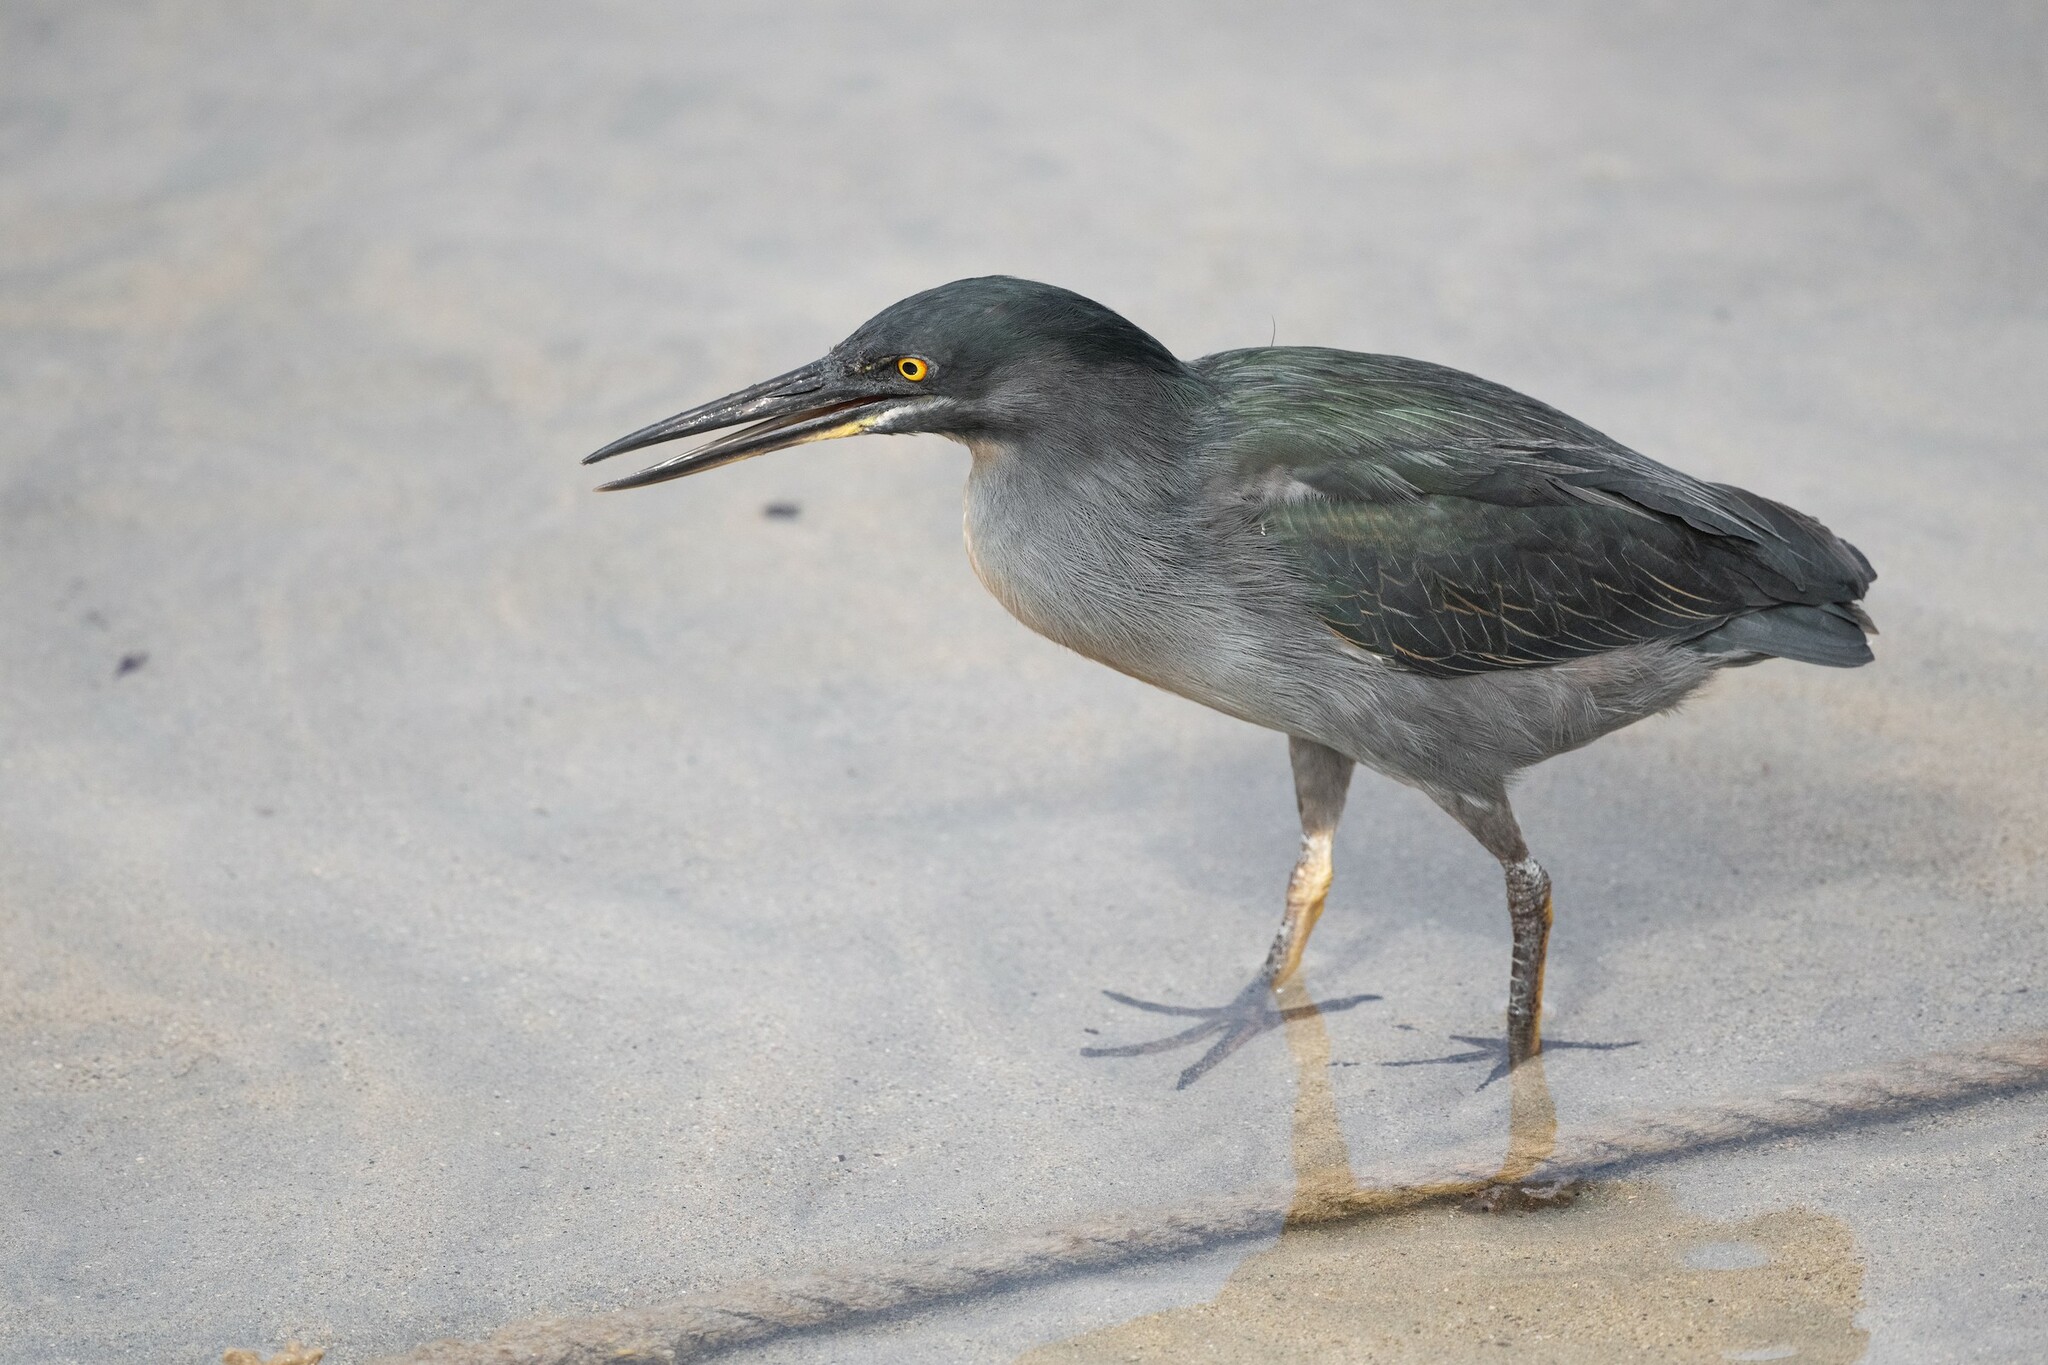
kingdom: Animalia
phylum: Chordata
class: Aves
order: Pelecaniformes
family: Ardeidae
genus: Butorides
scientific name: Butorides striata
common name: Striated heron
